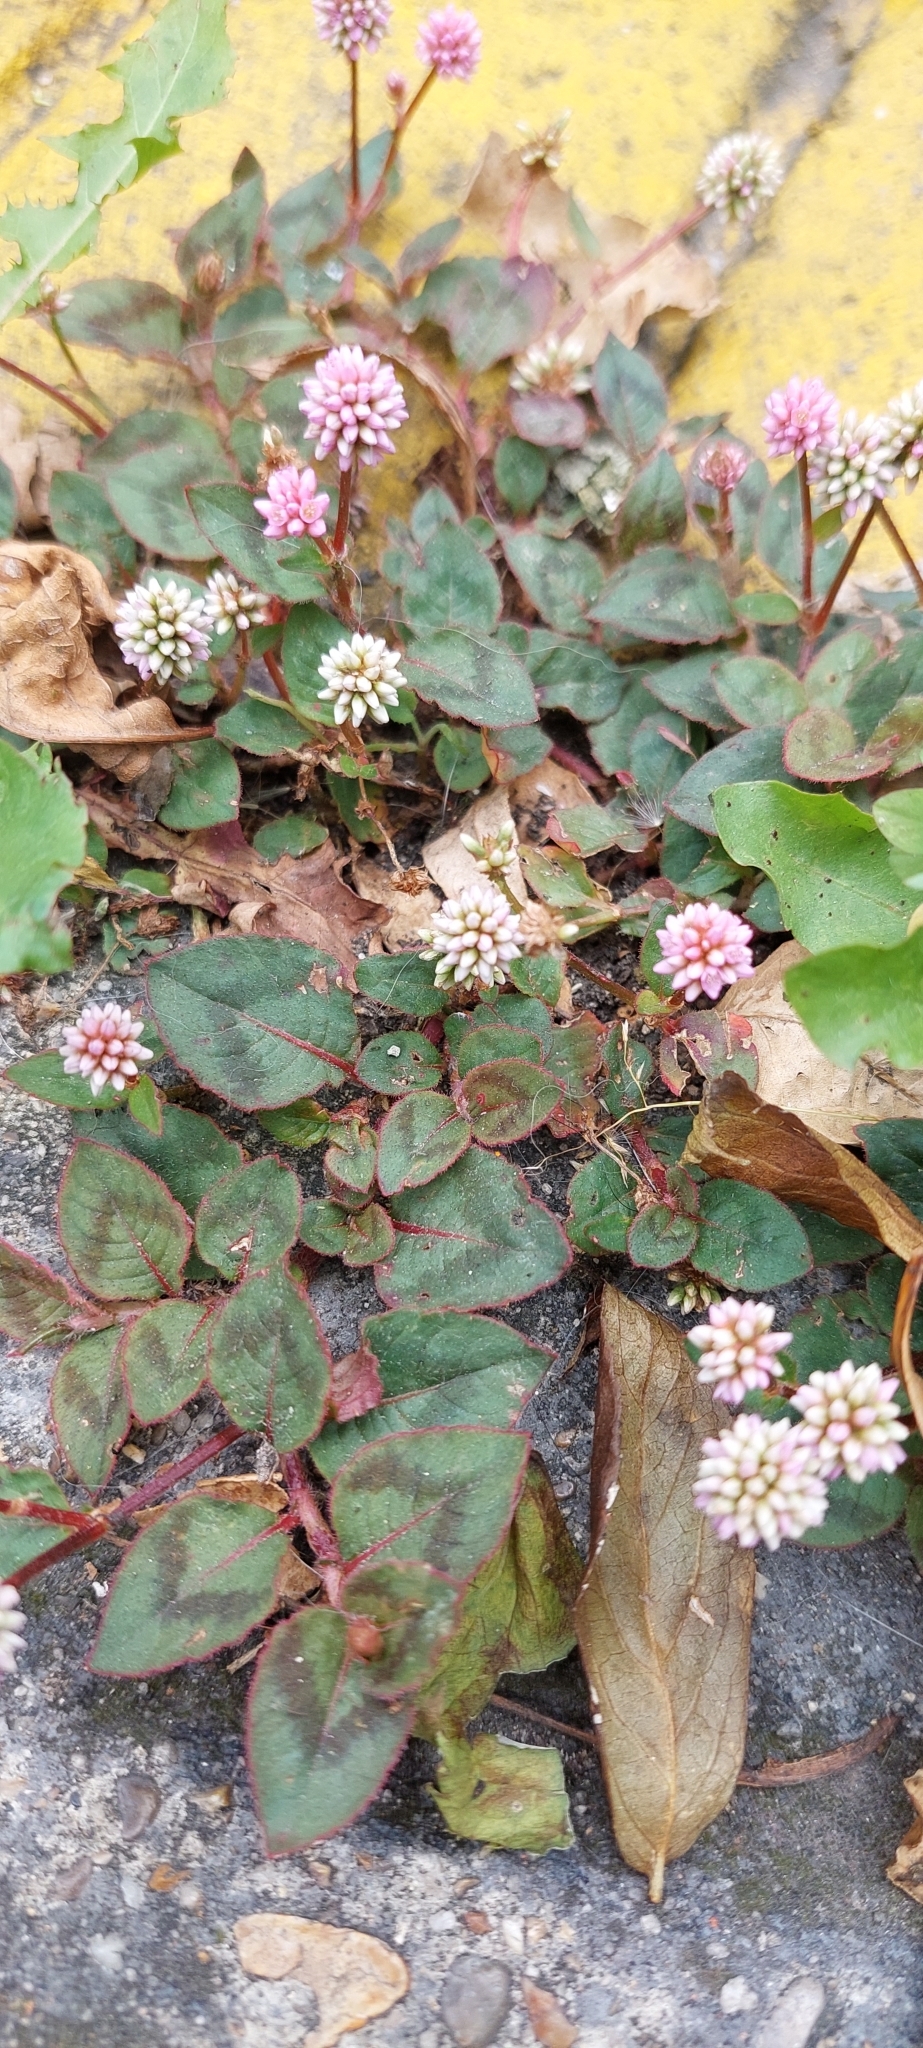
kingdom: Plantae
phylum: Tracheophyta
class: Magnoliopsida
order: Caryophyllales
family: Polygonaceae
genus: Persicaria
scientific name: Persicaria capitata
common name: Pinkhead smartweed
